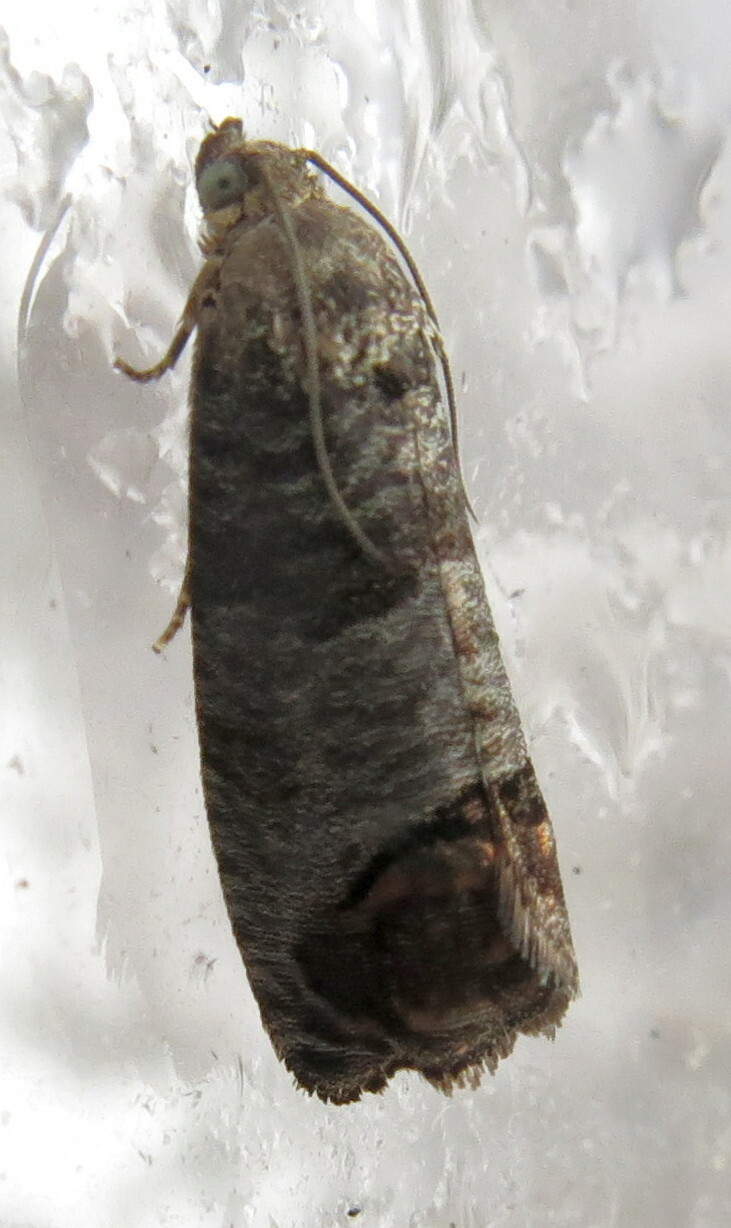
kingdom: Animalia
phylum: Arthropoda
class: Insecta
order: Lepidoptera
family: Tortricidae
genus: Cydia
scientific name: Cydia pomonella
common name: Codling moth
